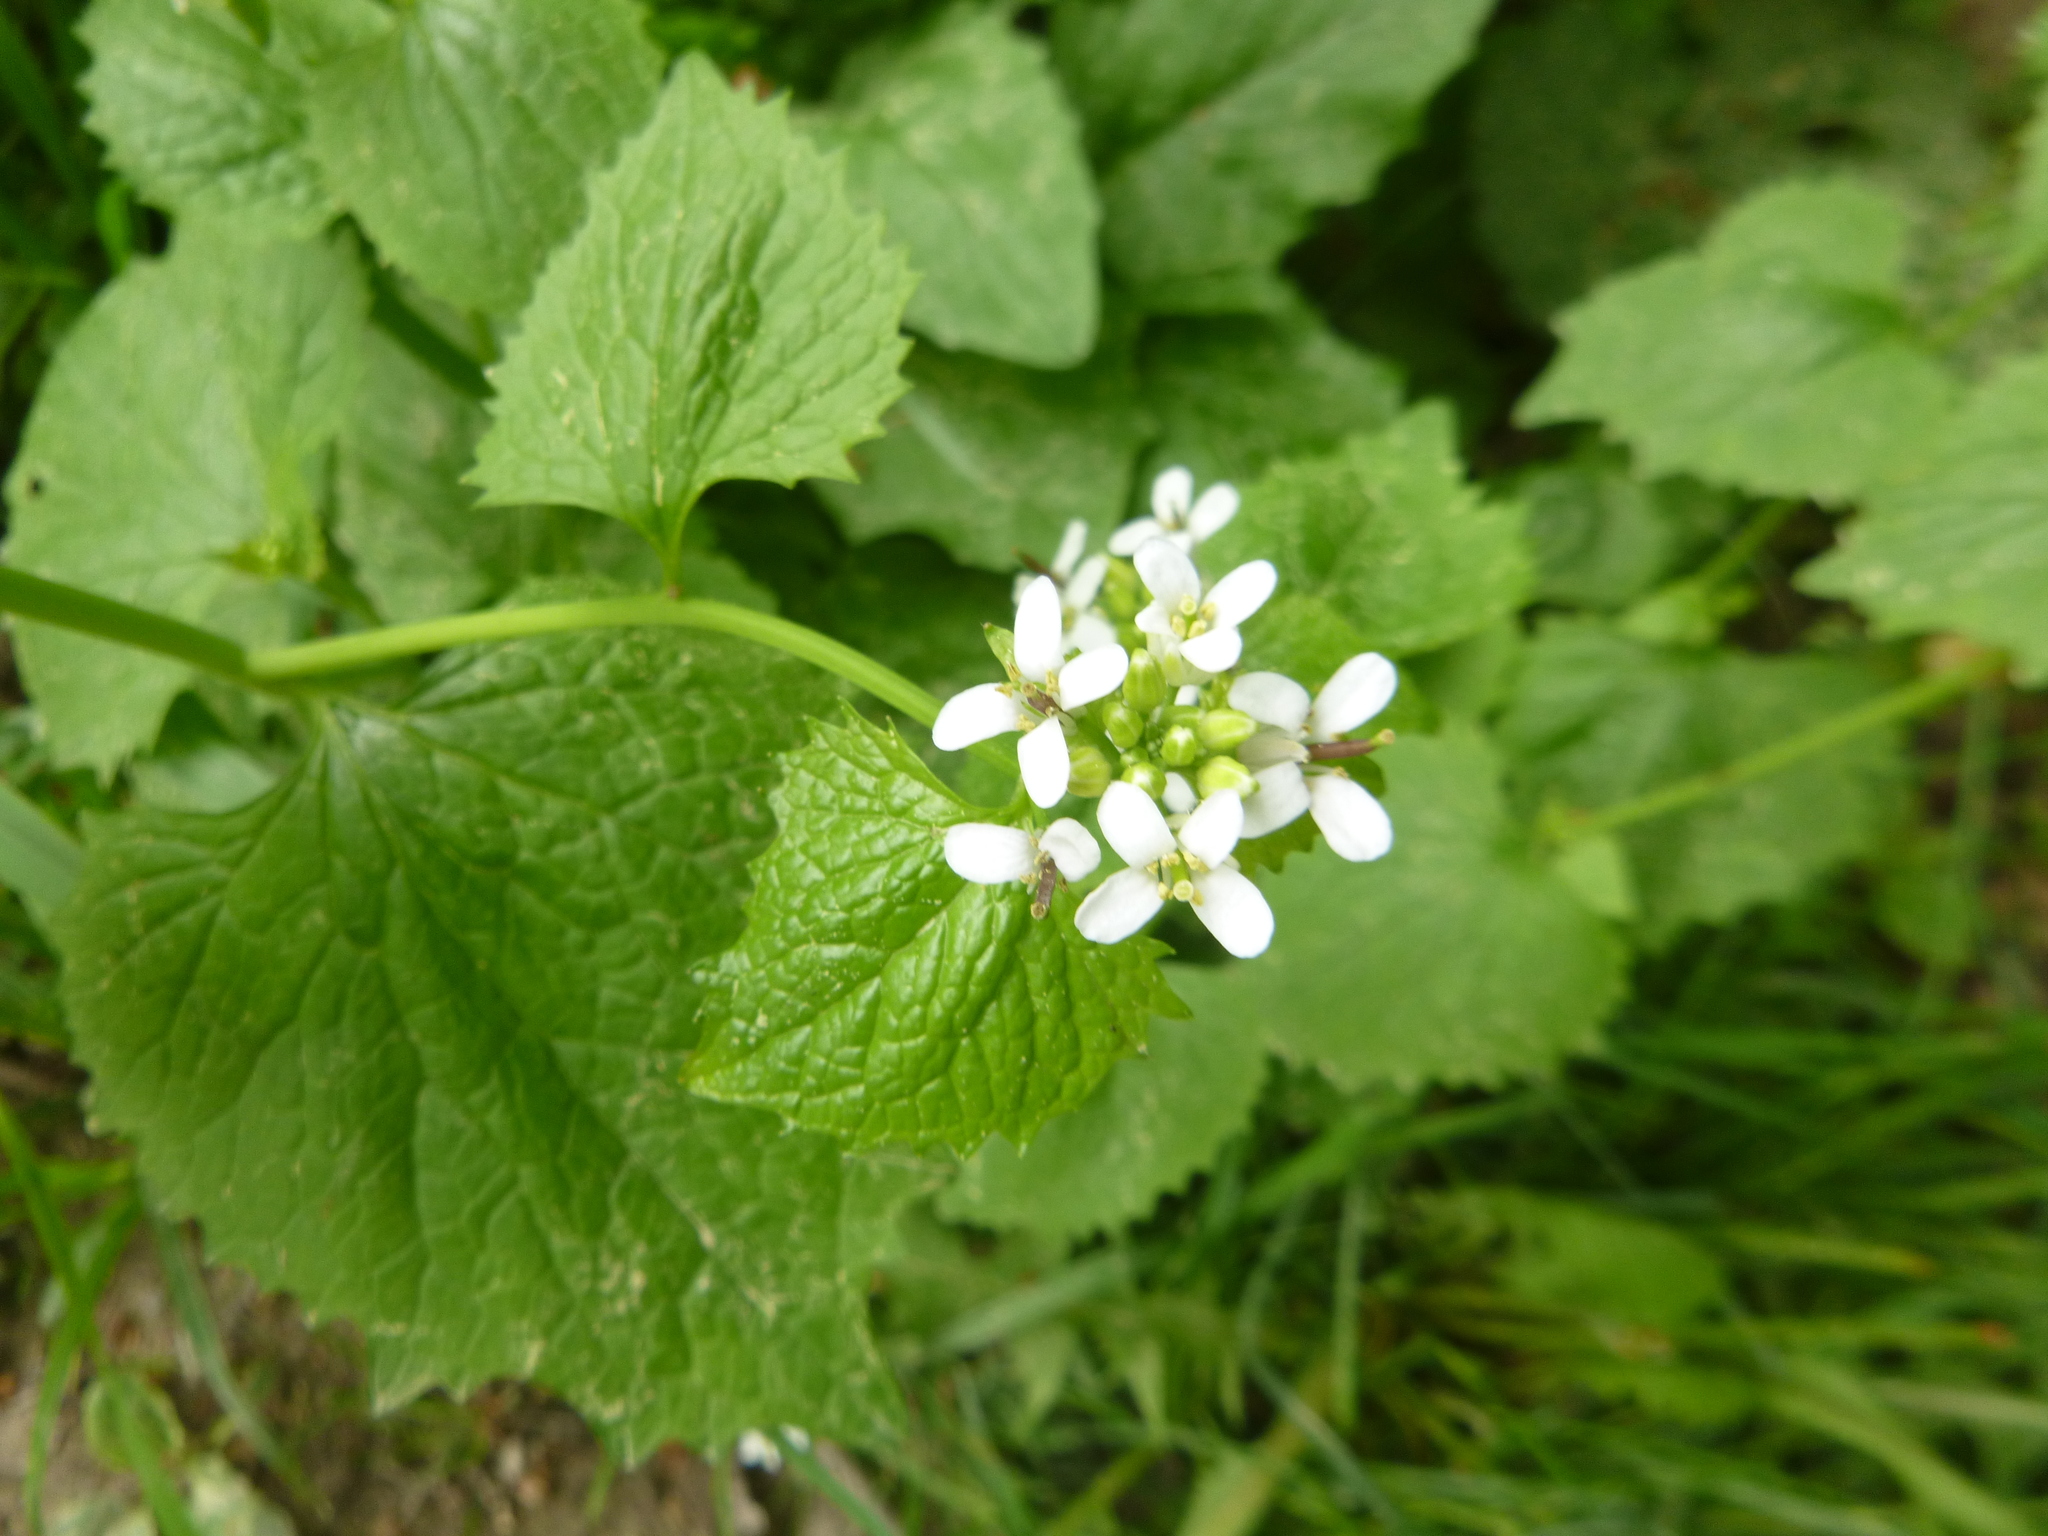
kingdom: Plantae
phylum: Tracheophyta
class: Magnoliopsida
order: Brassicales
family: Brassicaceae
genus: Alliaria
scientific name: Alliaria petiolata
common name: Garlic mustard
